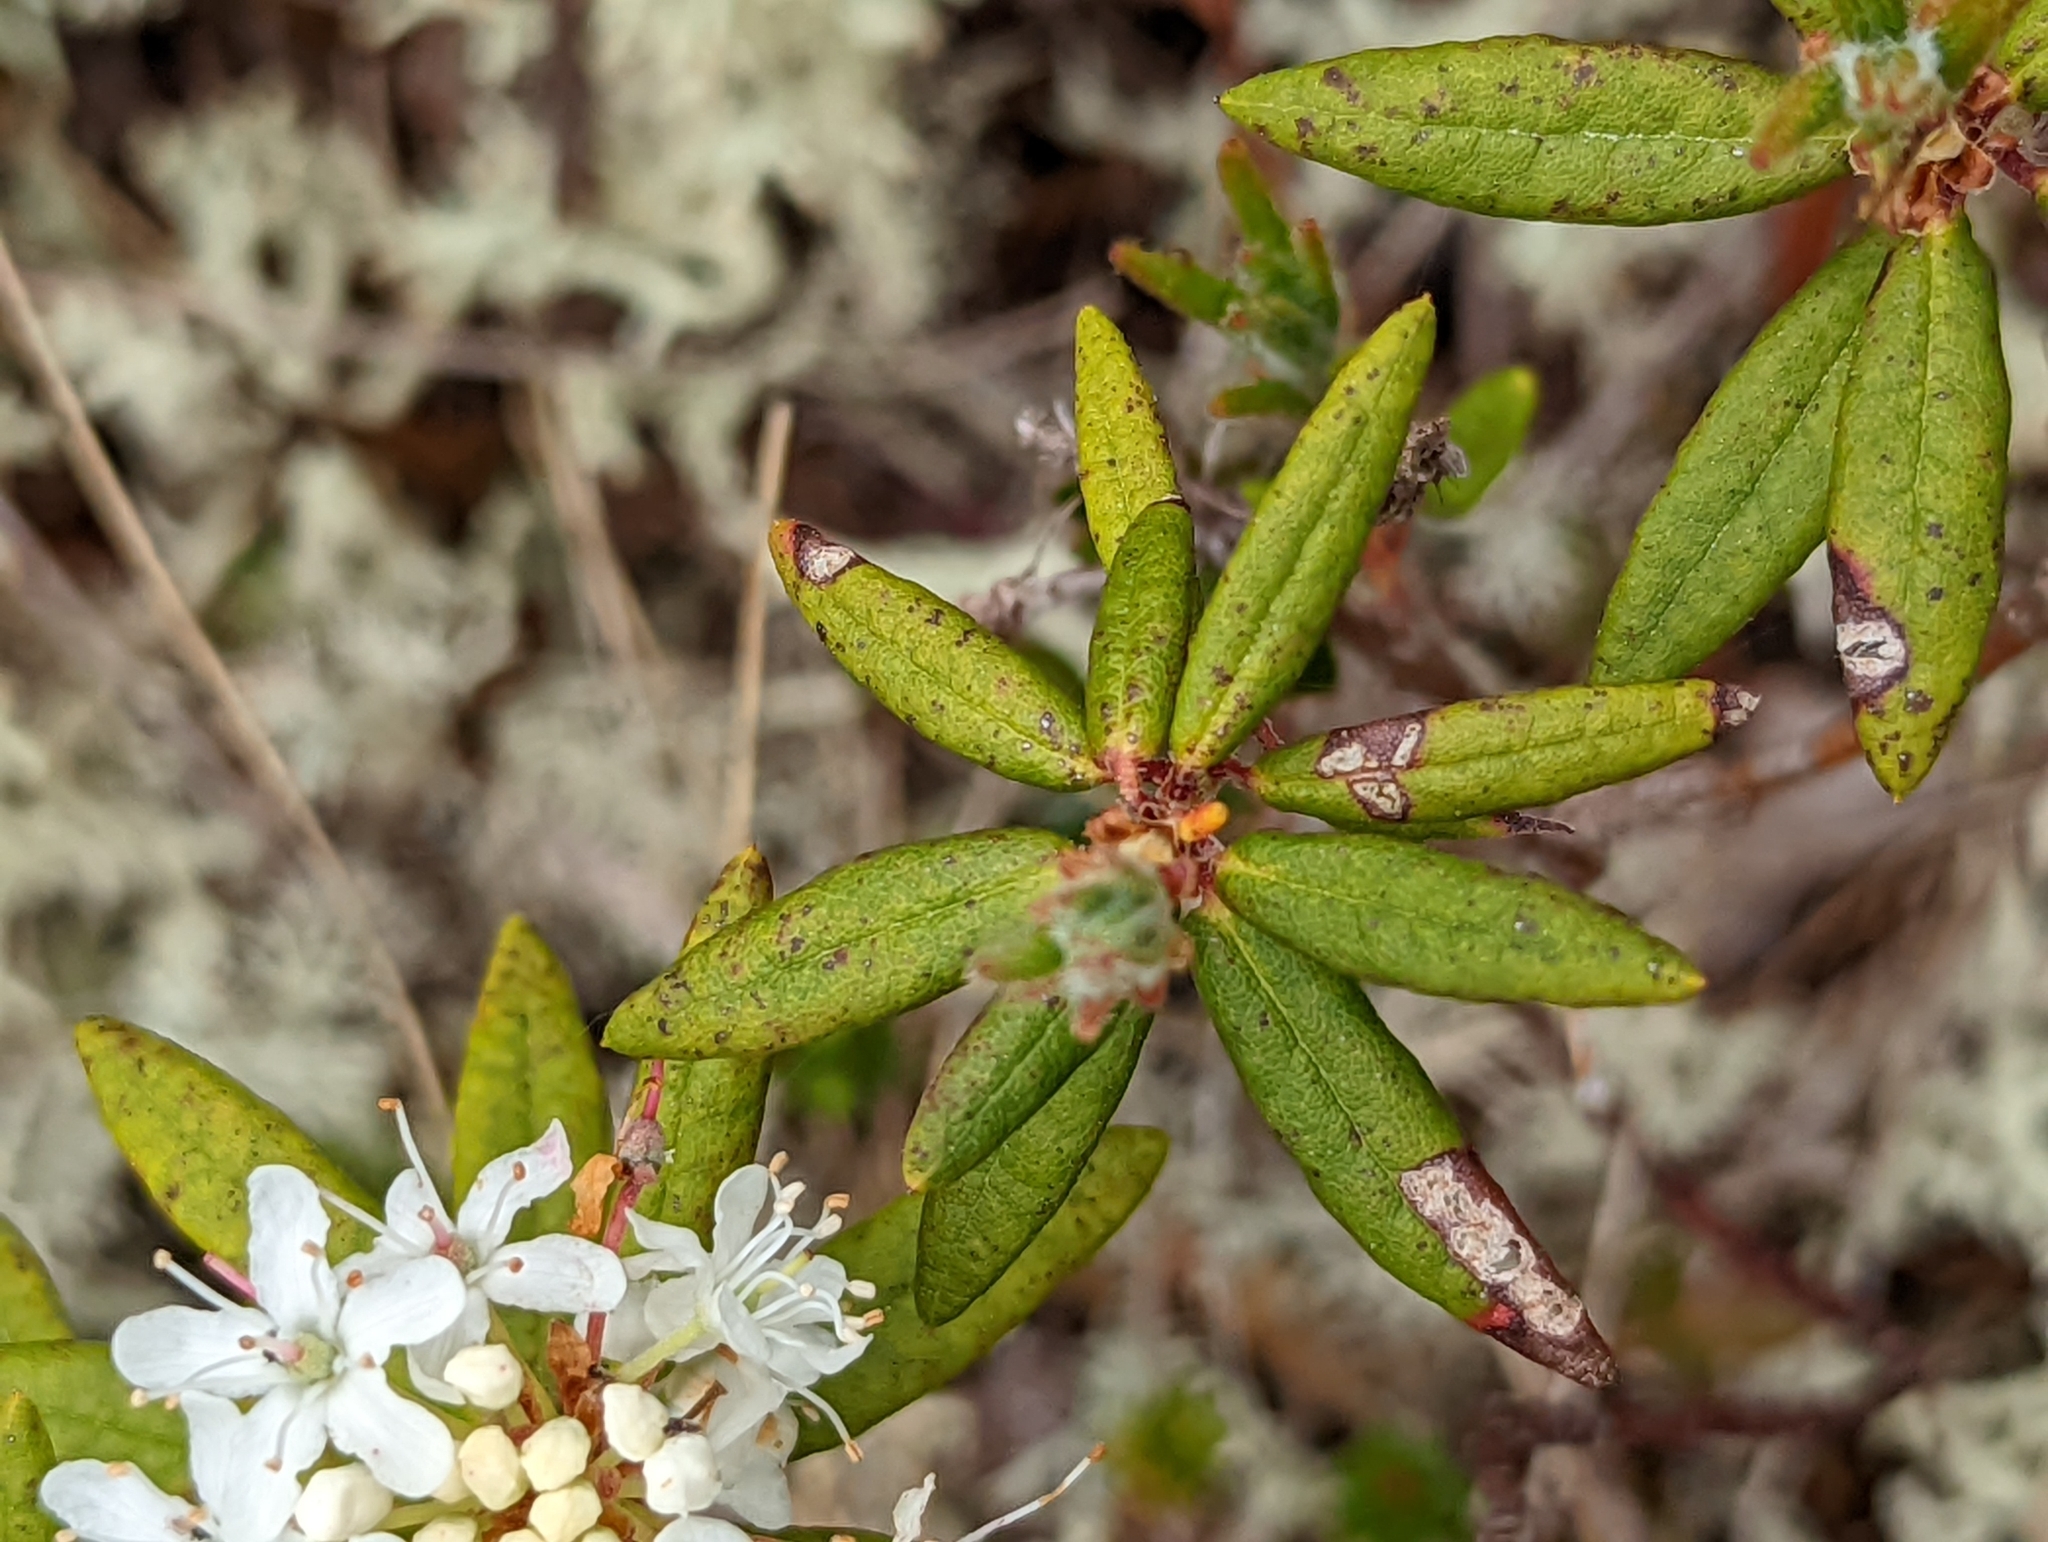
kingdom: Plantae
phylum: Tracheophyta
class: Magnoliopsida
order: Ericales
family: Ericaceae
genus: Rhododendron
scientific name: Rhododendron groenlandicum
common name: Bog labrador tea
